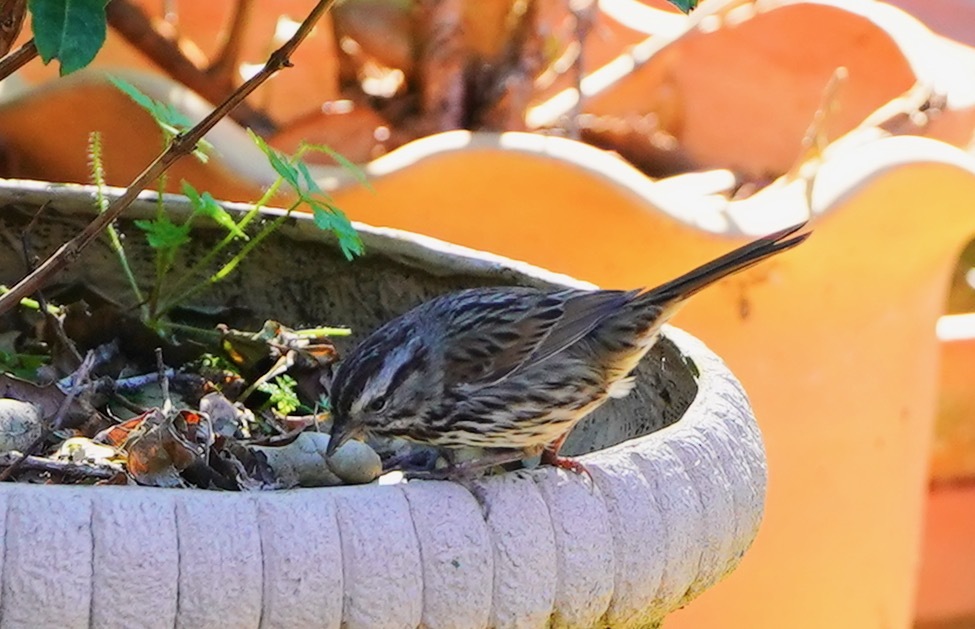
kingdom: Animalia
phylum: Chordata
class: Aves
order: Passeriformes
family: Passerellidae
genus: Melospiza
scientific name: Melospiza melodia
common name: Song sparrow
